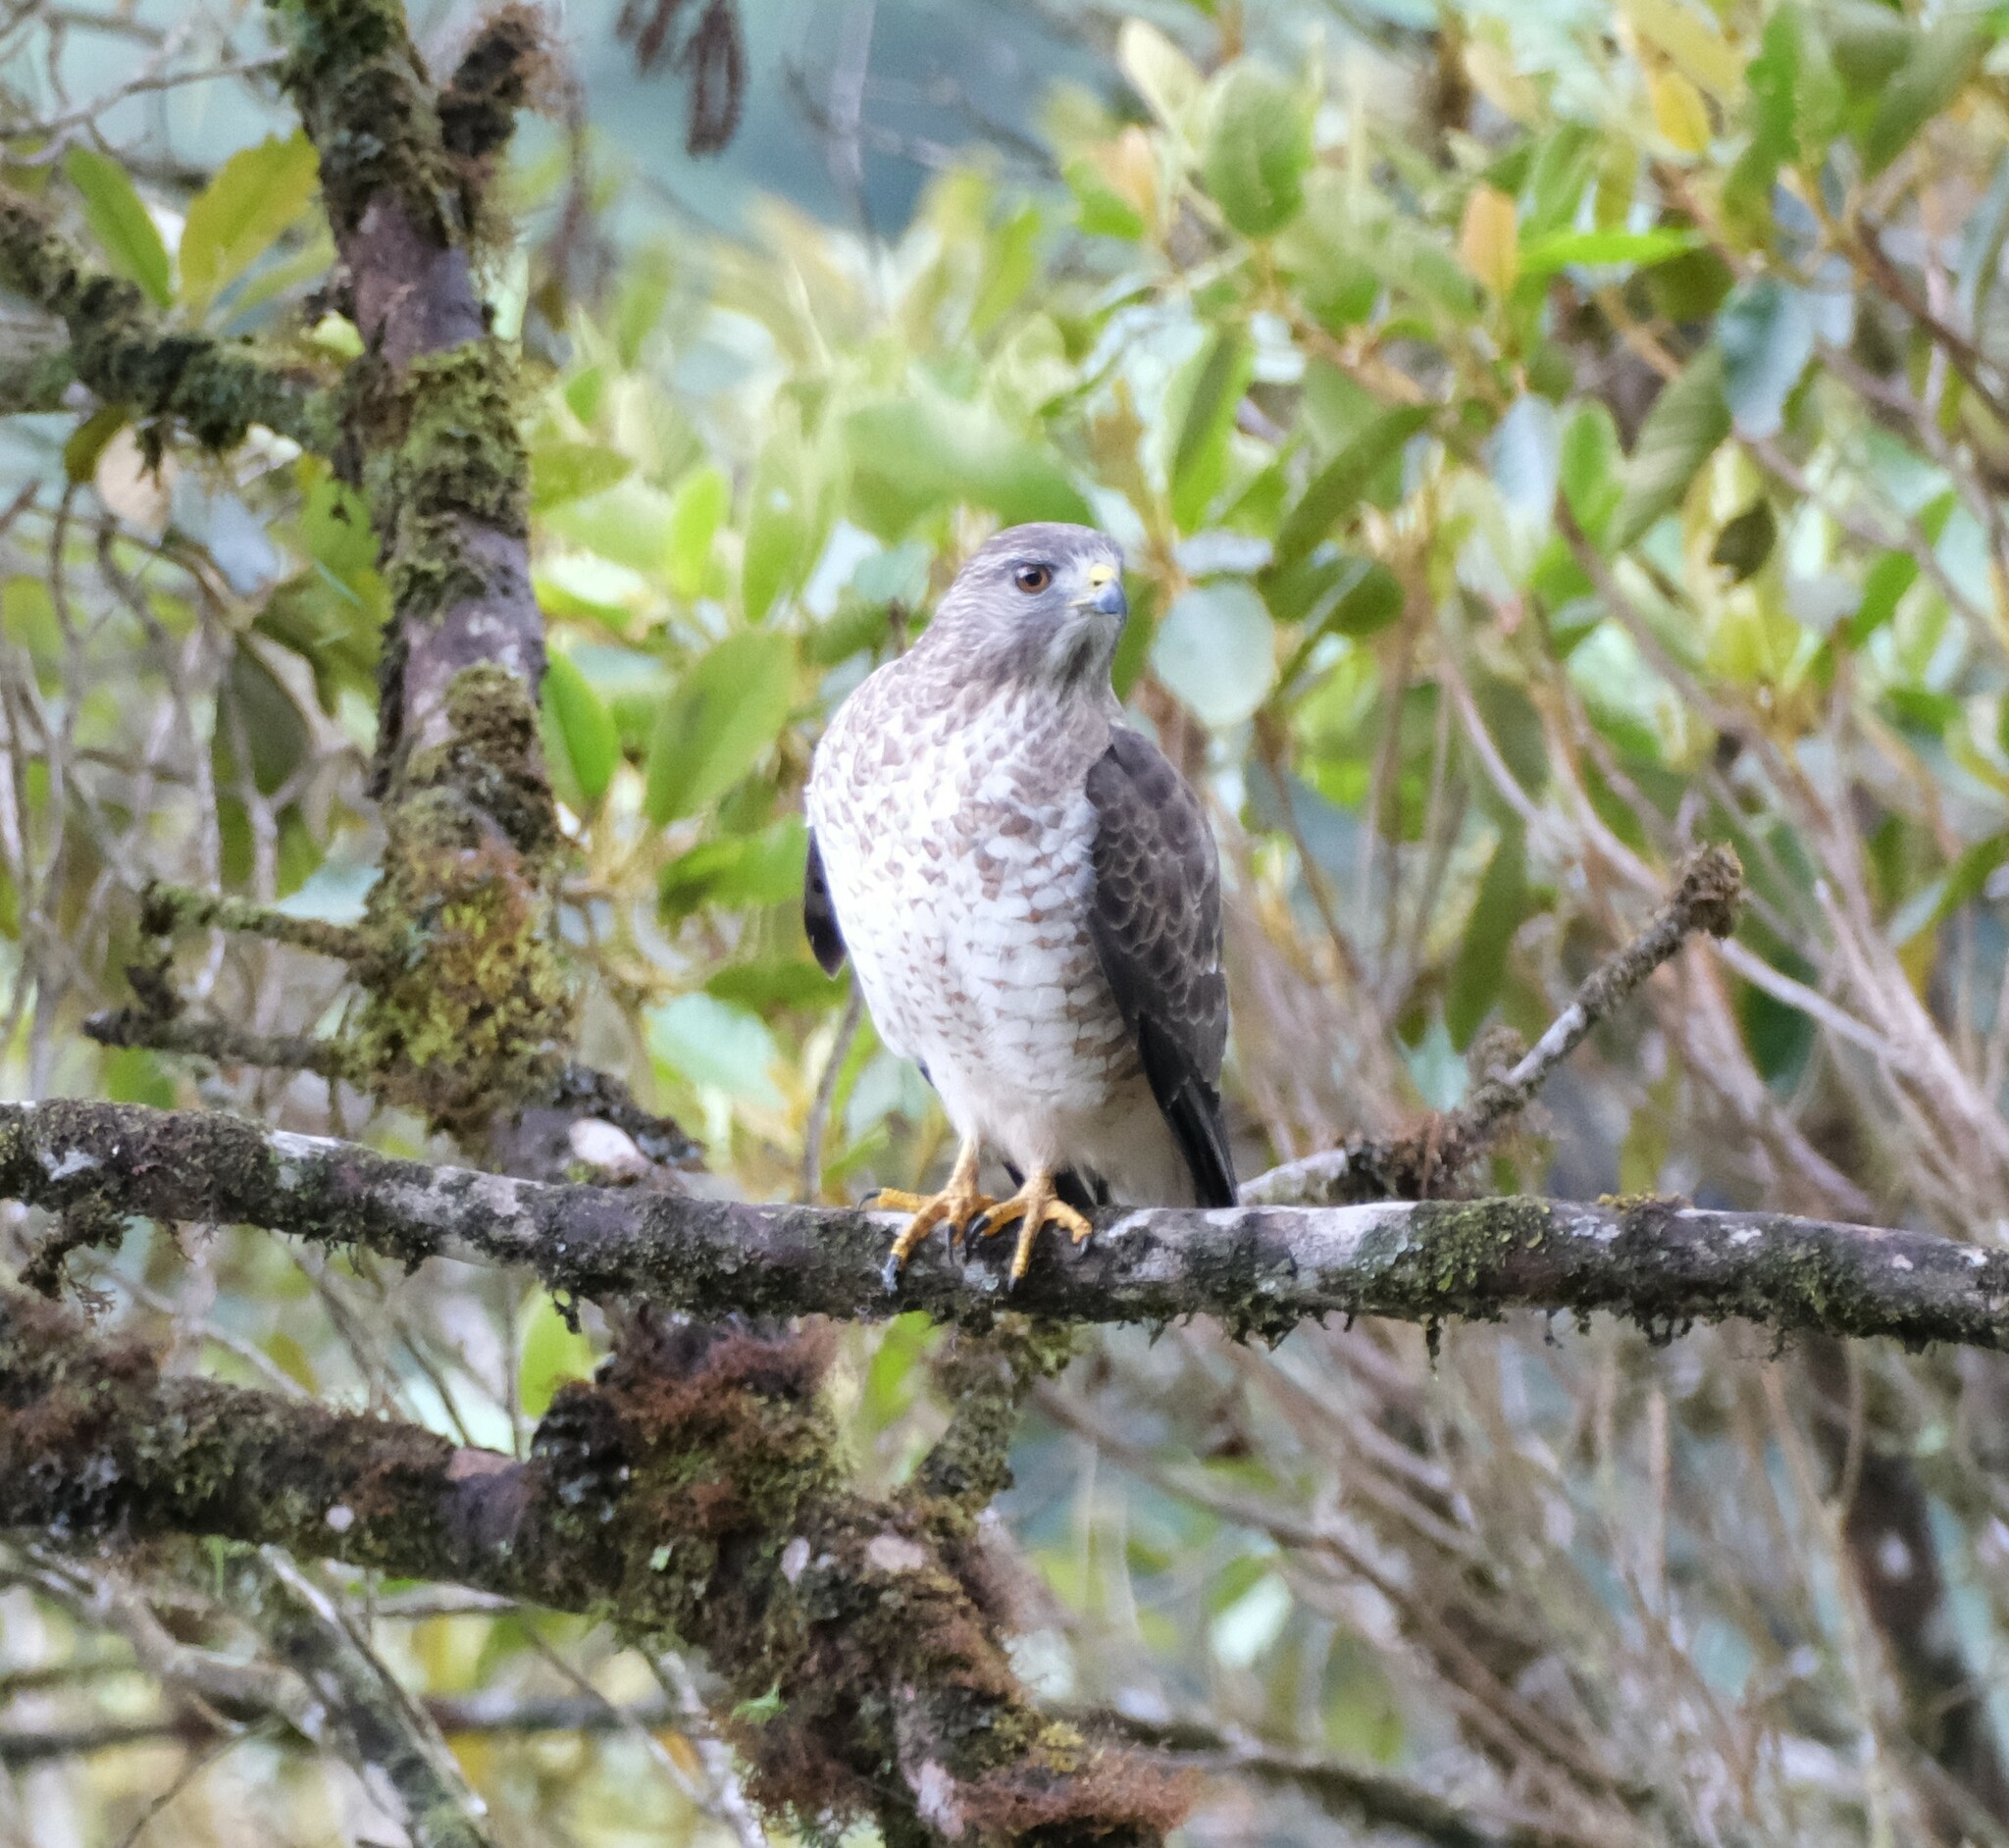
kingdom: Animalia
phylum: Chordata
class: Aves
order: Accipitriformes
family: Accipitridae
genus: Buteo
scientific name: Buteo platypterus
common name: Broad-winged hawk
